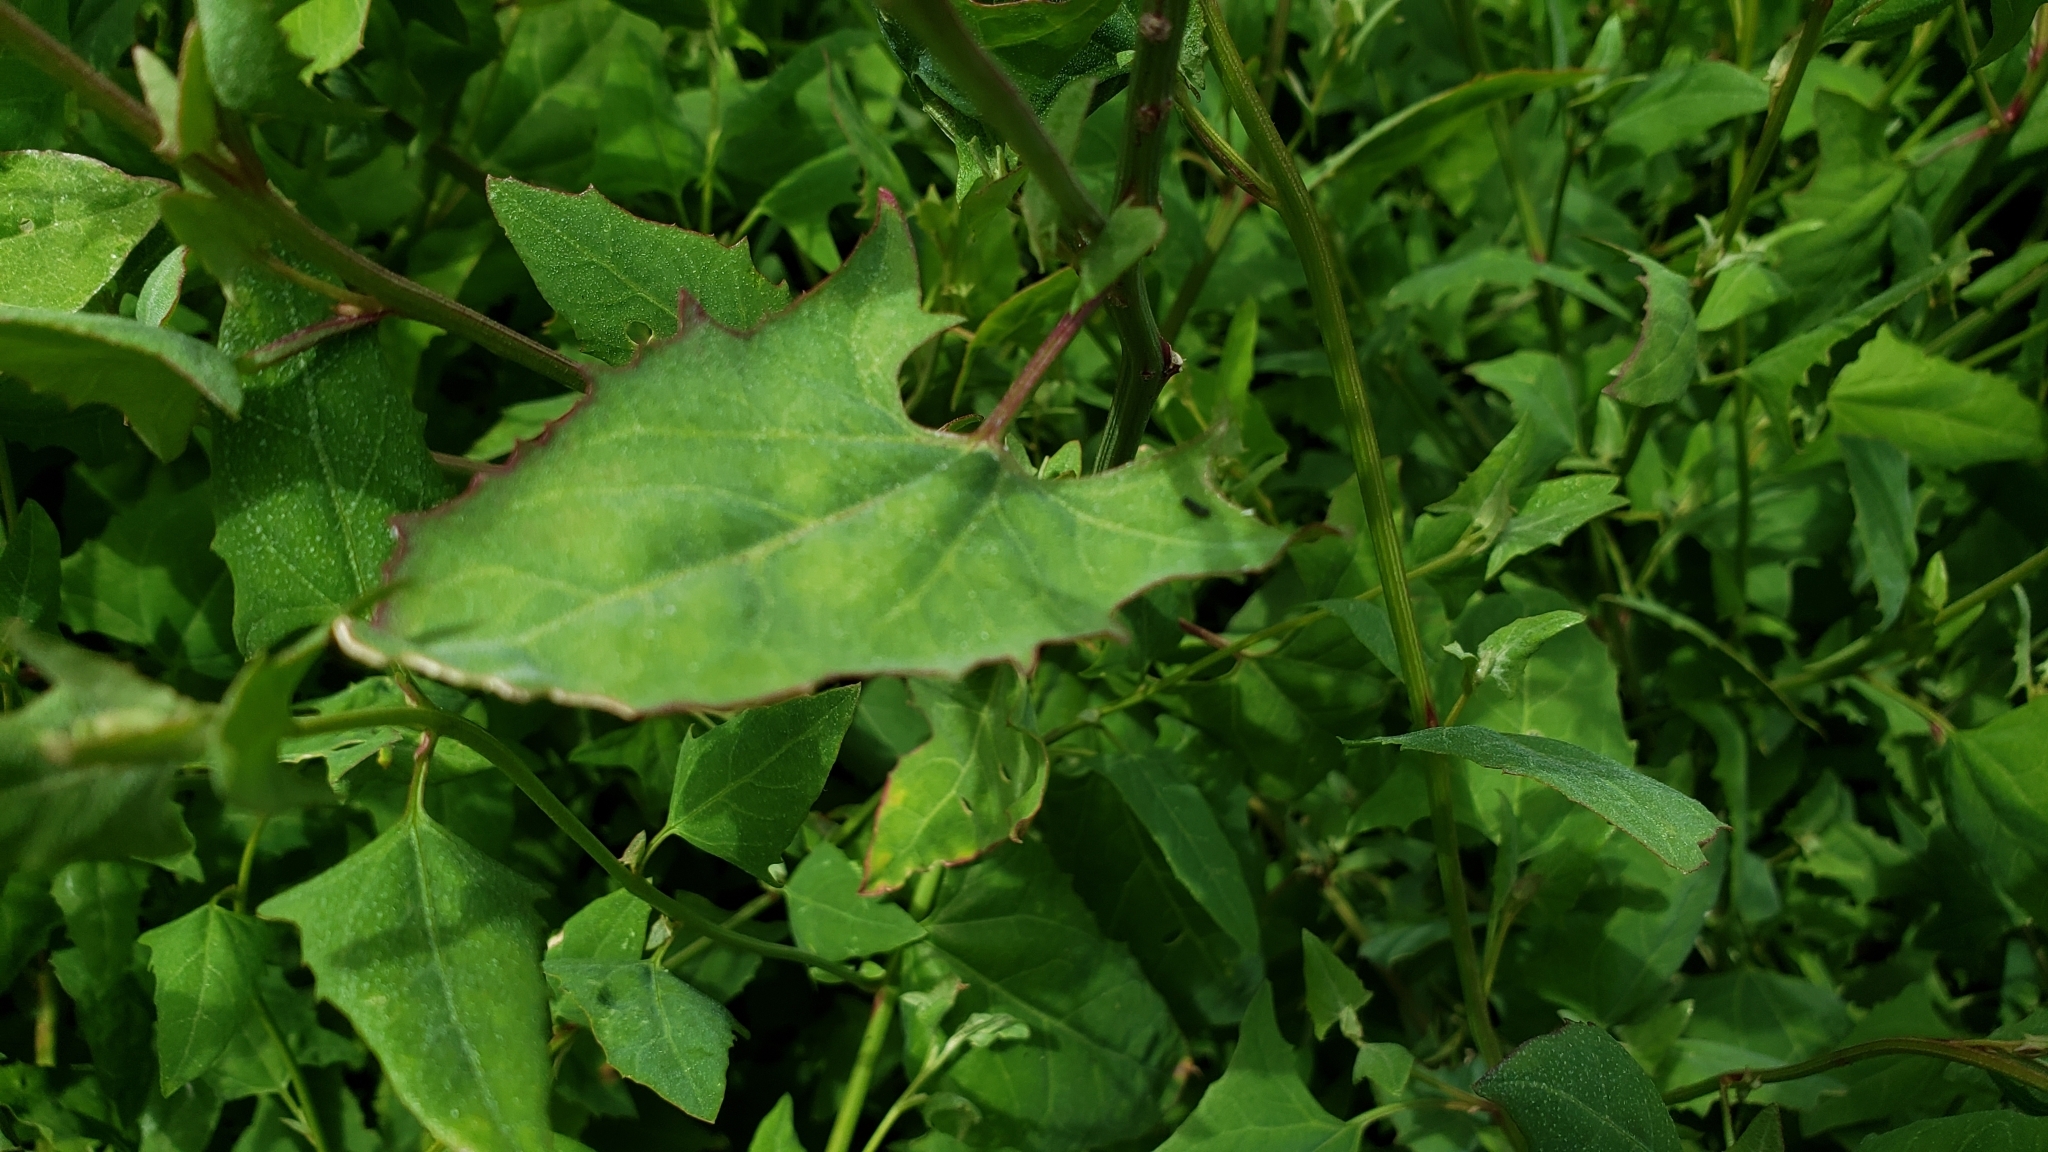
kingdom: Plantae
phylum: Tracheophyta
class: Magnoliopsida
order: Caryophyllales
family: Amaranthaceae
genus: Atriplex
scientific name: Atriplex prostrata
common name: Spear-leaved orache
